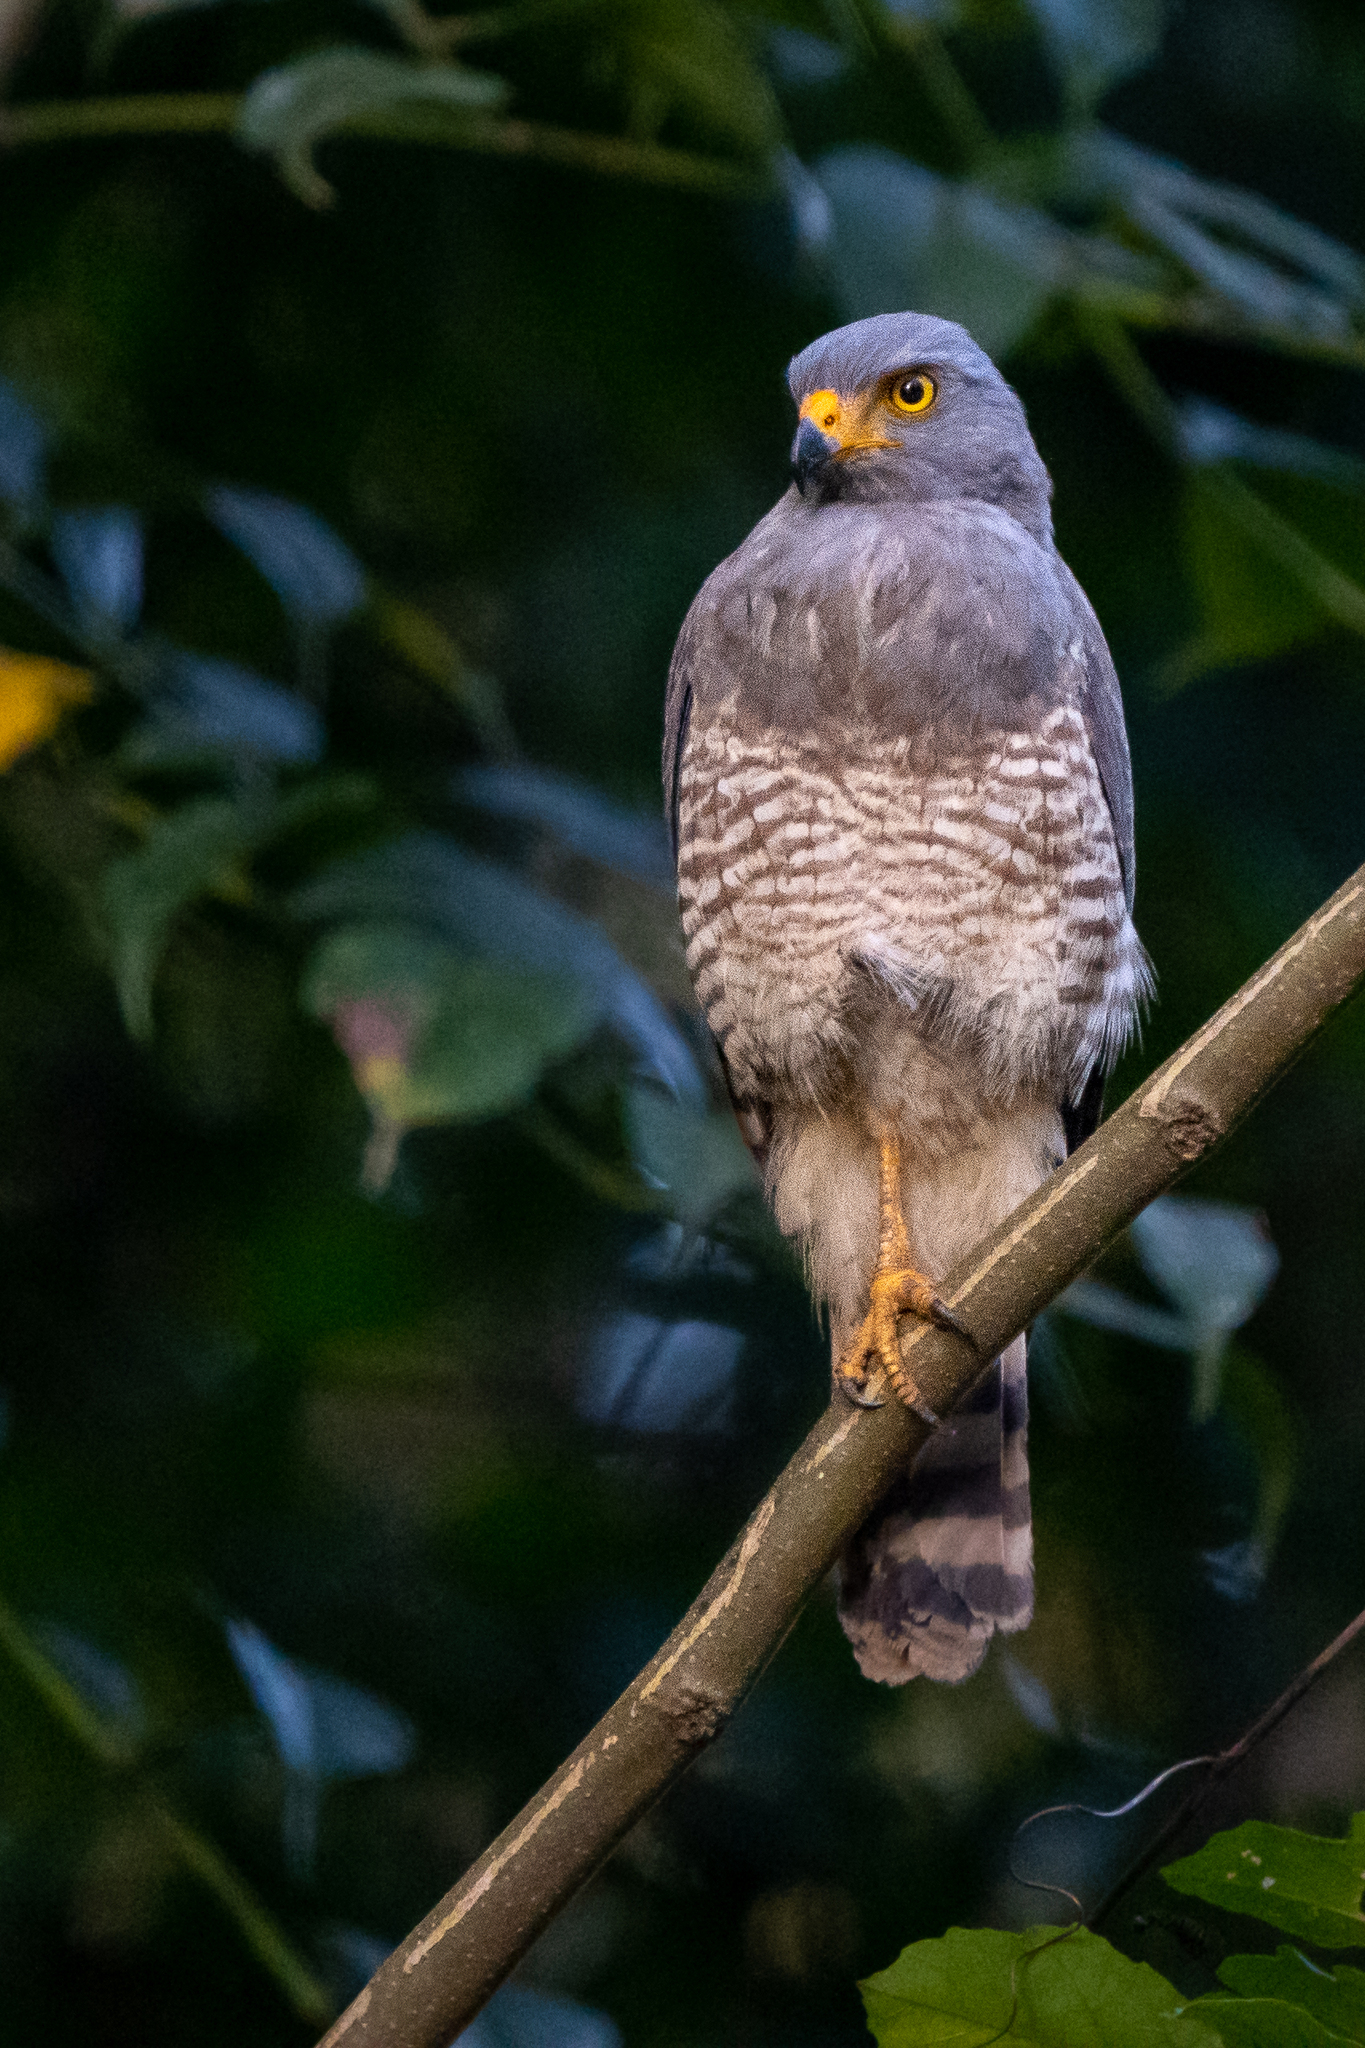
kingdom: Animalia
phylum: Chordata
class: Aves
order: Accipitriformes
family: Accipitridae
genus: Rupornis
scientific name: Rupornis magnirostris
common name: Roadside hawk
